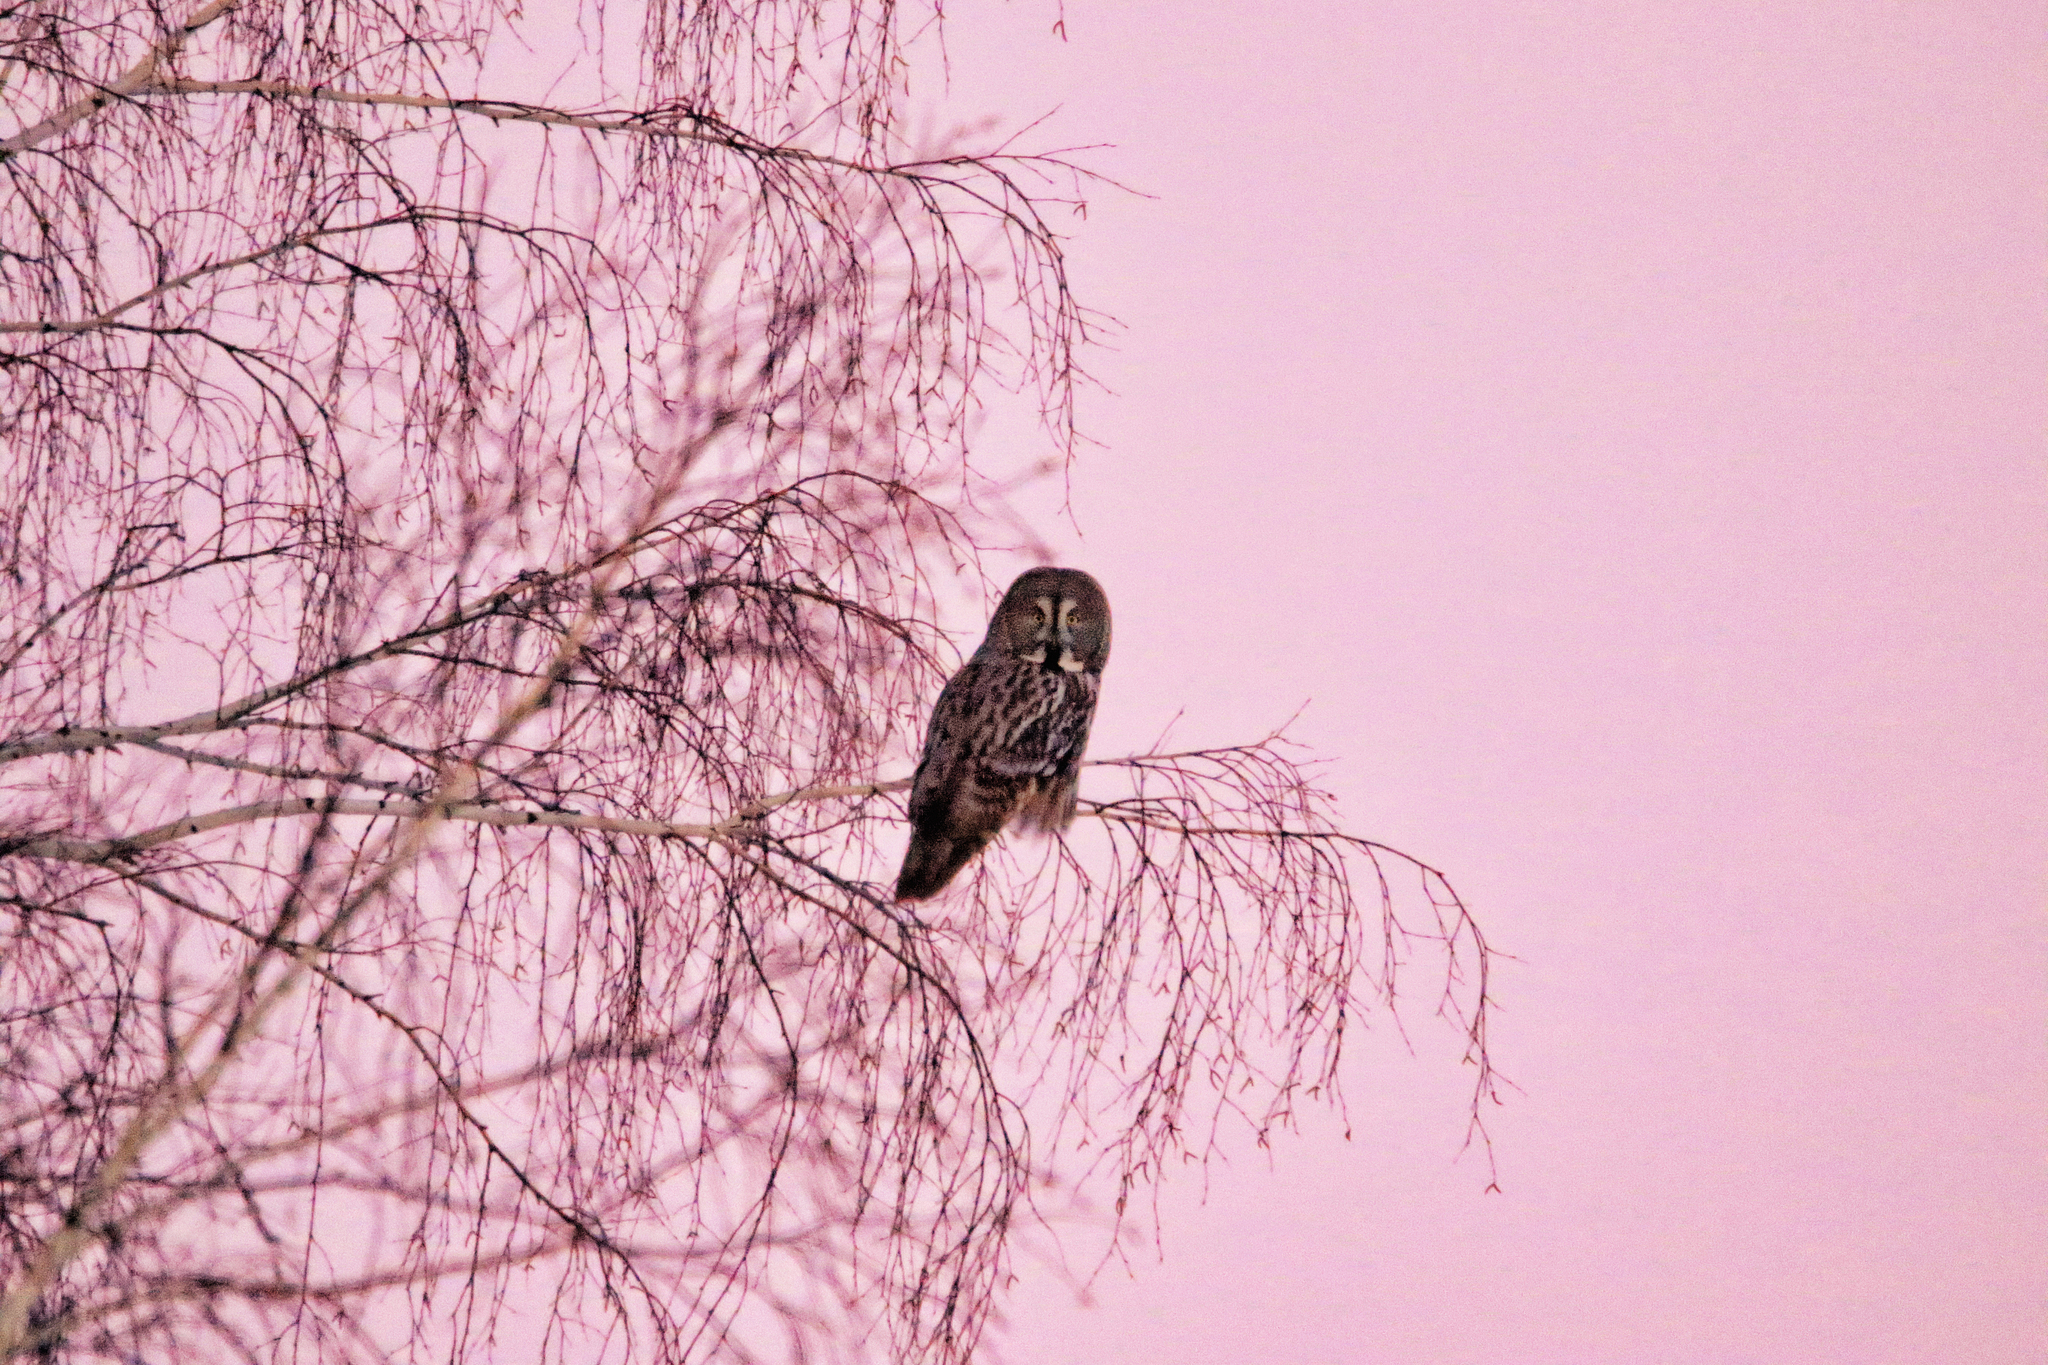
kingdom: Animalia
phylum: Chordata
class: Aves
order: Strigiformes
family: Strigidae
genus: Strix
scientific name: Strix nebulosa
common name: Great grey owl
